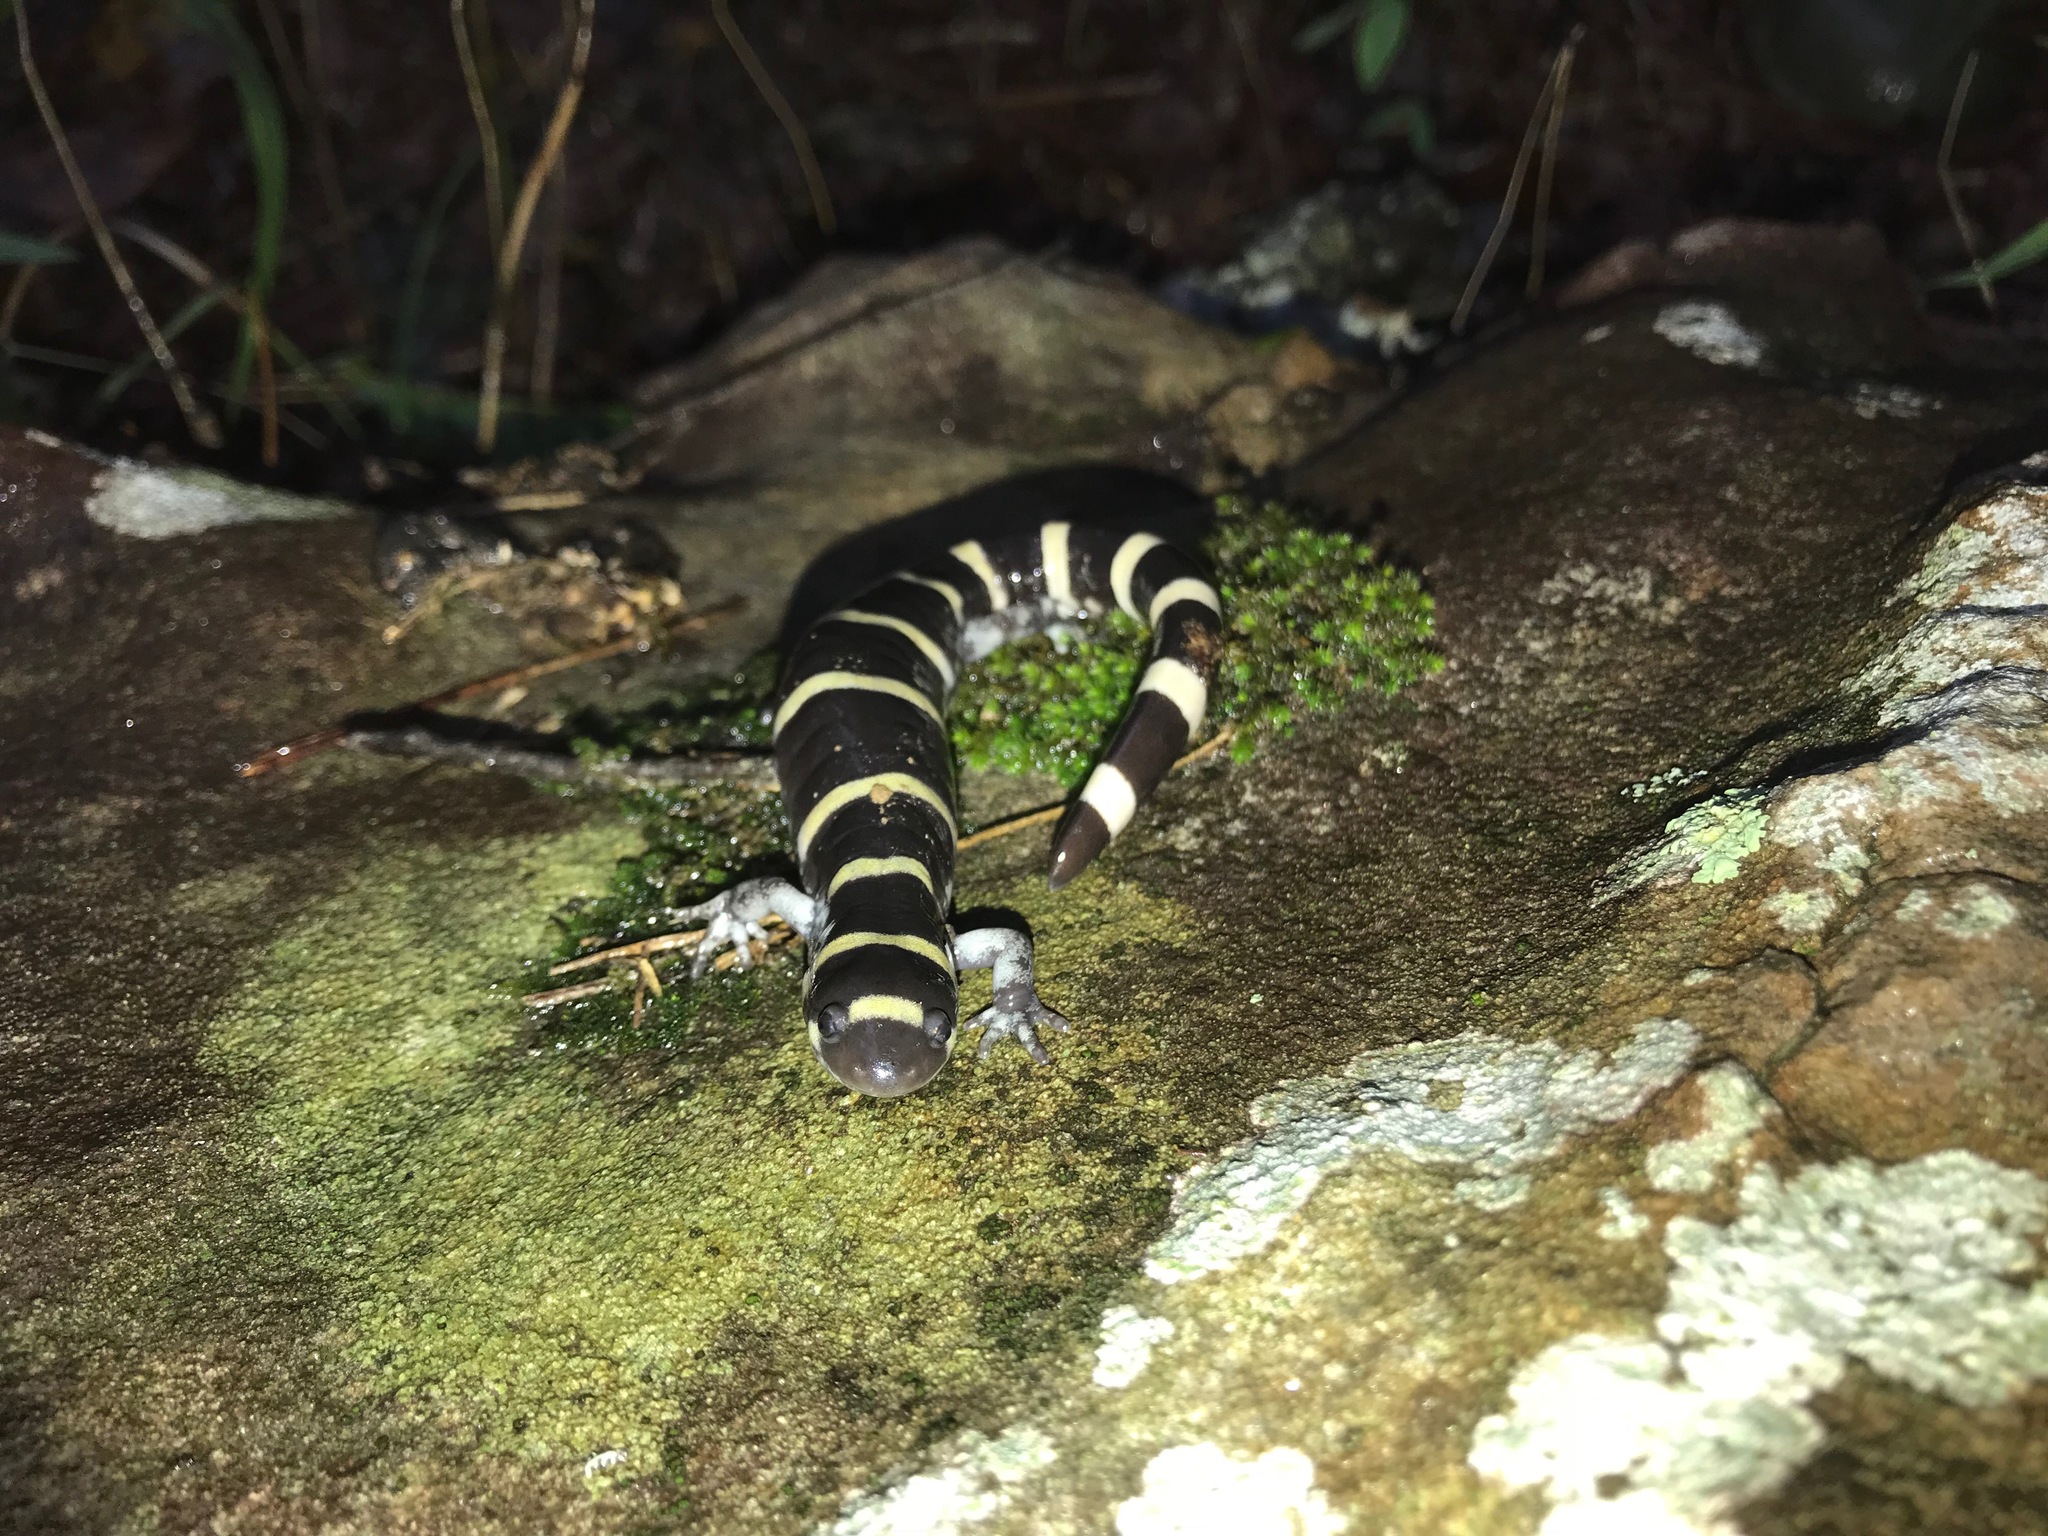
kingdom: Animalia
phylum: Chordata
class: Amphibia
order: Caudata
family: Ambystomatidae
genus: Ambystoma
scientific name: Ambystoma annulatum
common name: Ringed salamander
